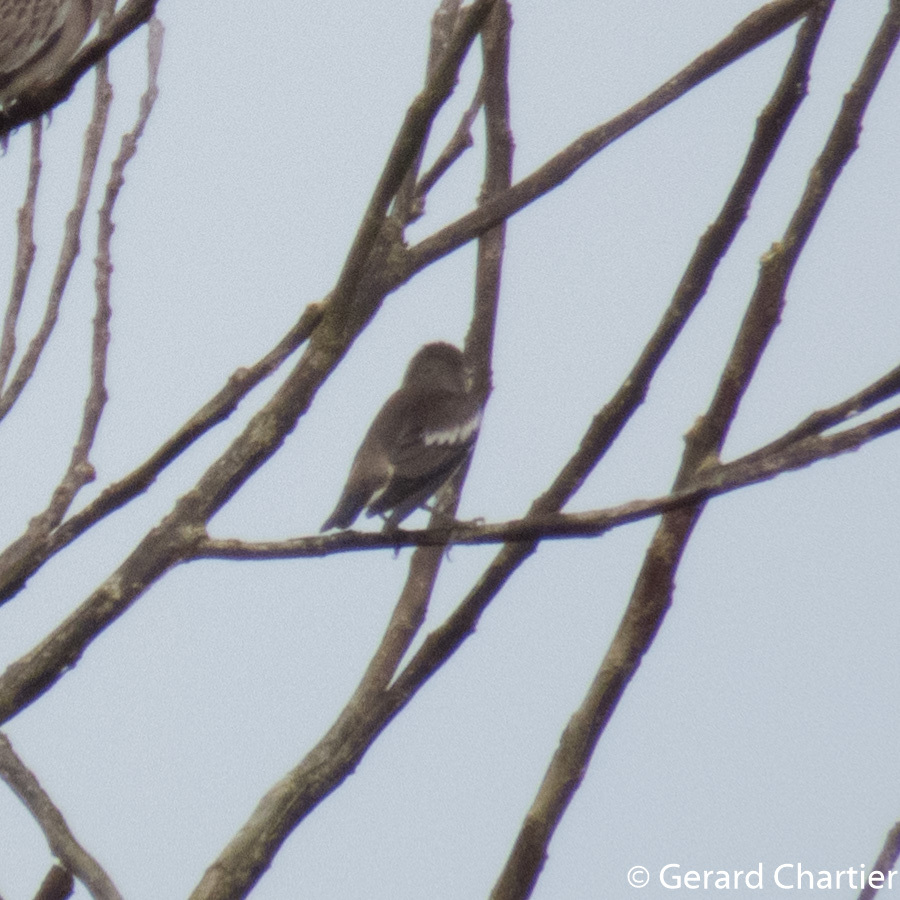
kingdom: Animalia
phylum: Chordata
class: Aves
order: Passeriformes
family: Sturnidae
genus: Agropsar
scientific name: Agropsar sturninus
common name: Daurian starling
